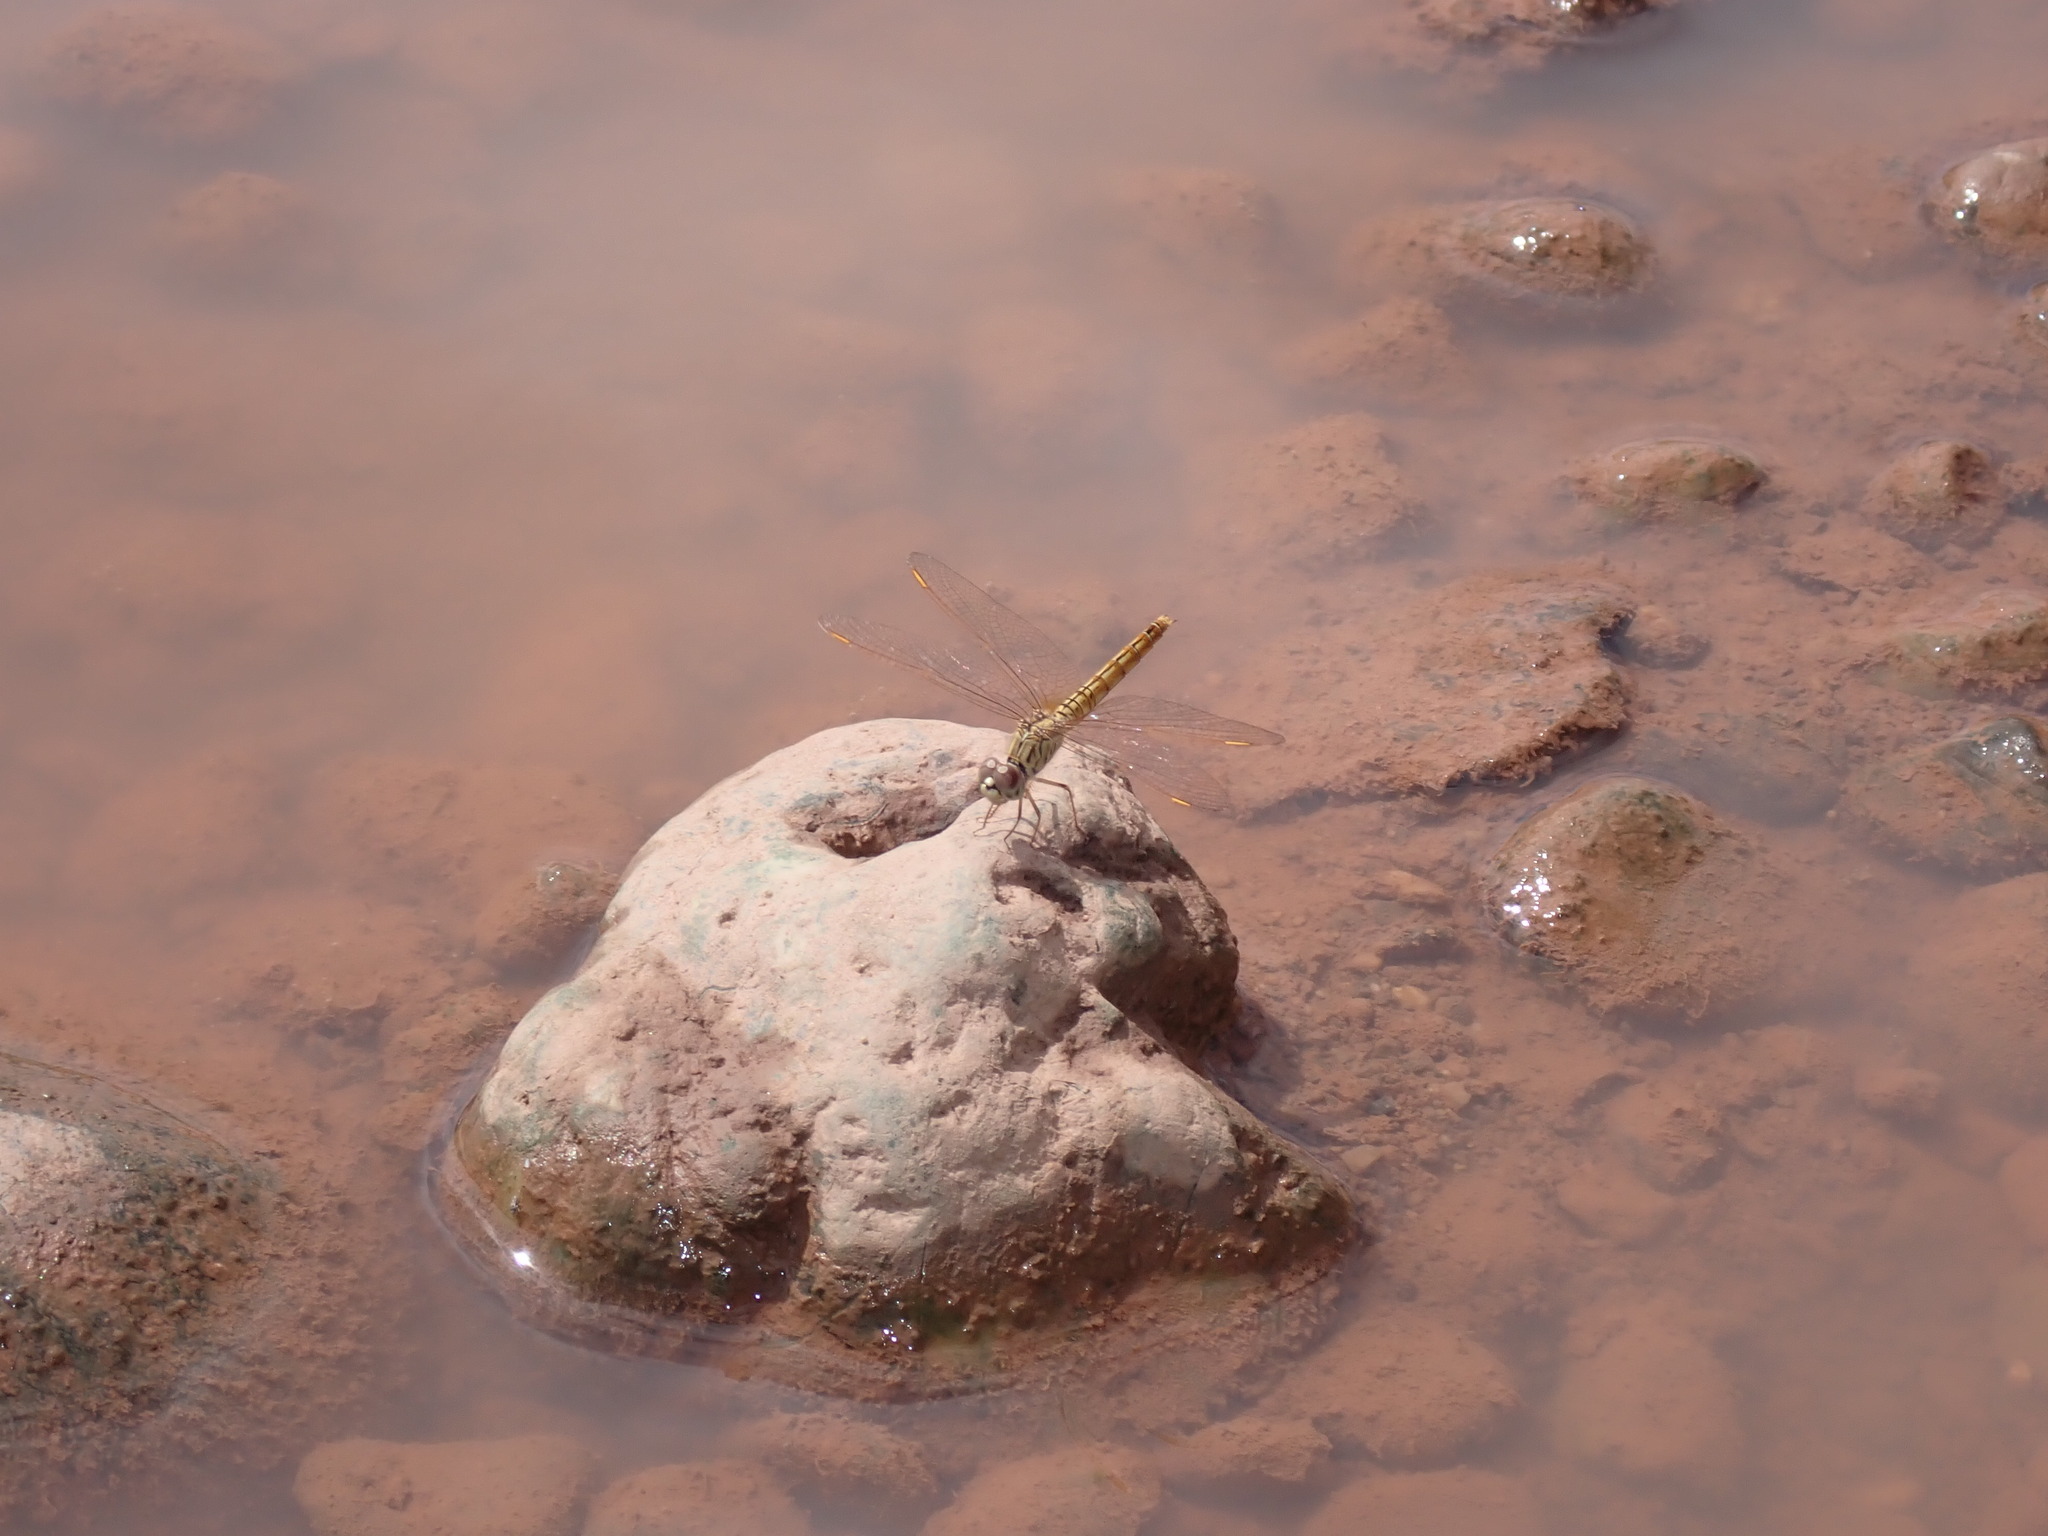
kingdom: Animalia
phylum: Arthropoda
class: Insecta
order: Odonata
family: Libellulidae
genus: Brachythemis
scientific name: Brachythemis contaminata
